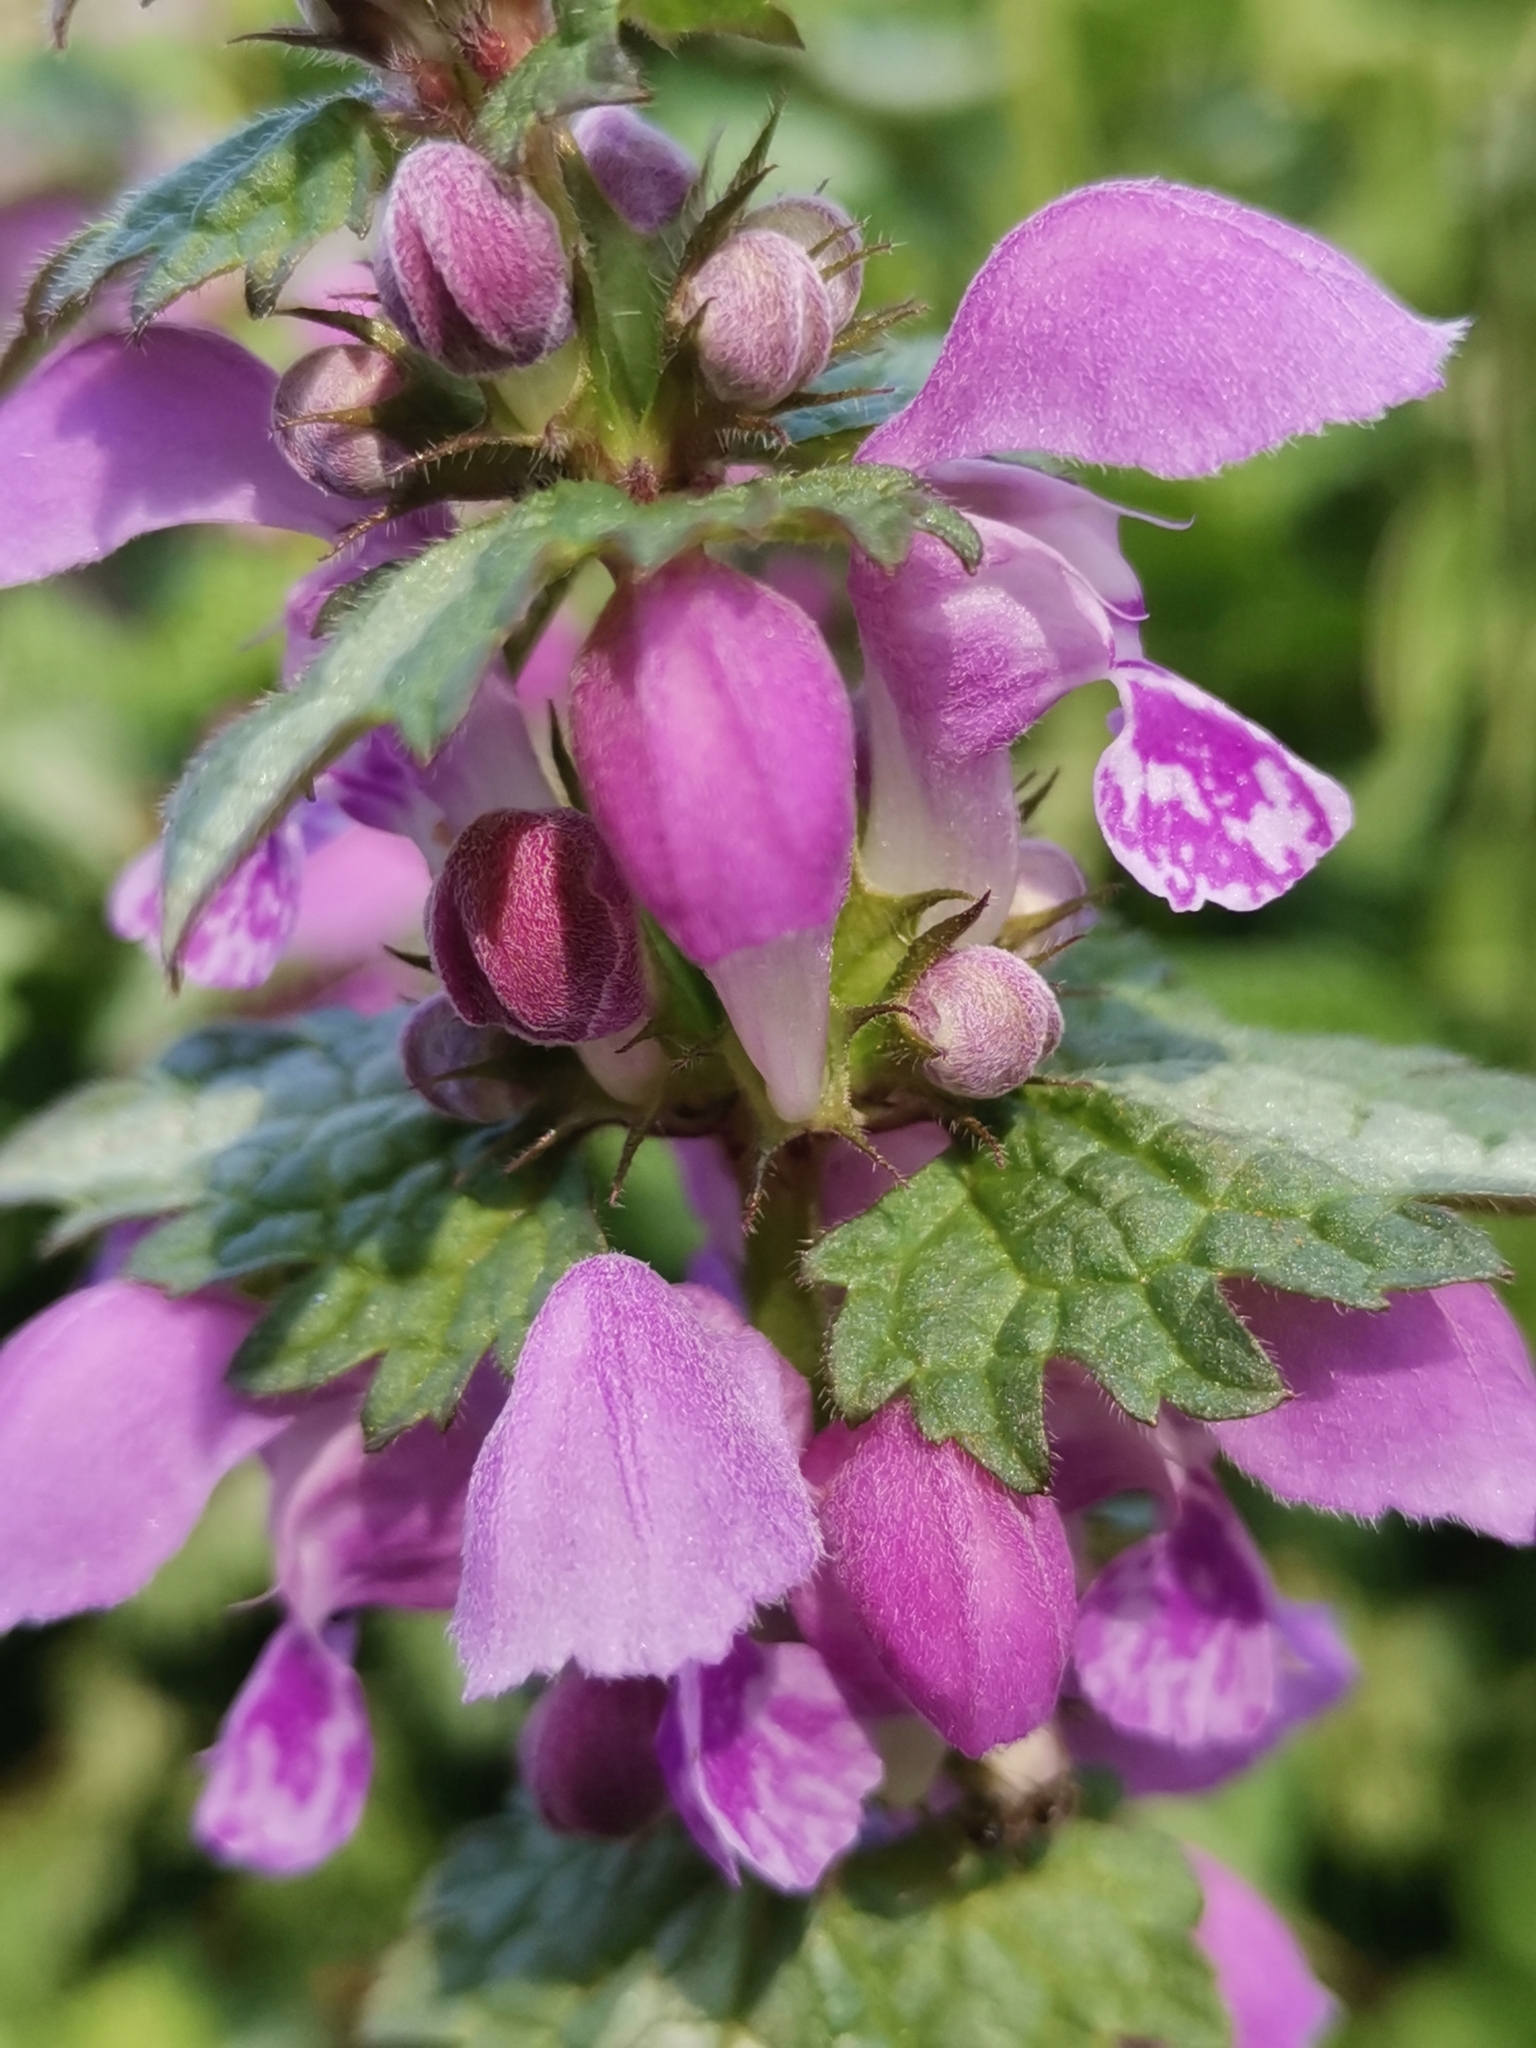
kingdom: Plantae
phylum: Tracheophyta
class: Magnoliopsida
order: Lamiales
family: Lamiaceae
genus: Lamium
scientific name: Lamium maculatum
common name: Spotted dead-nettle
